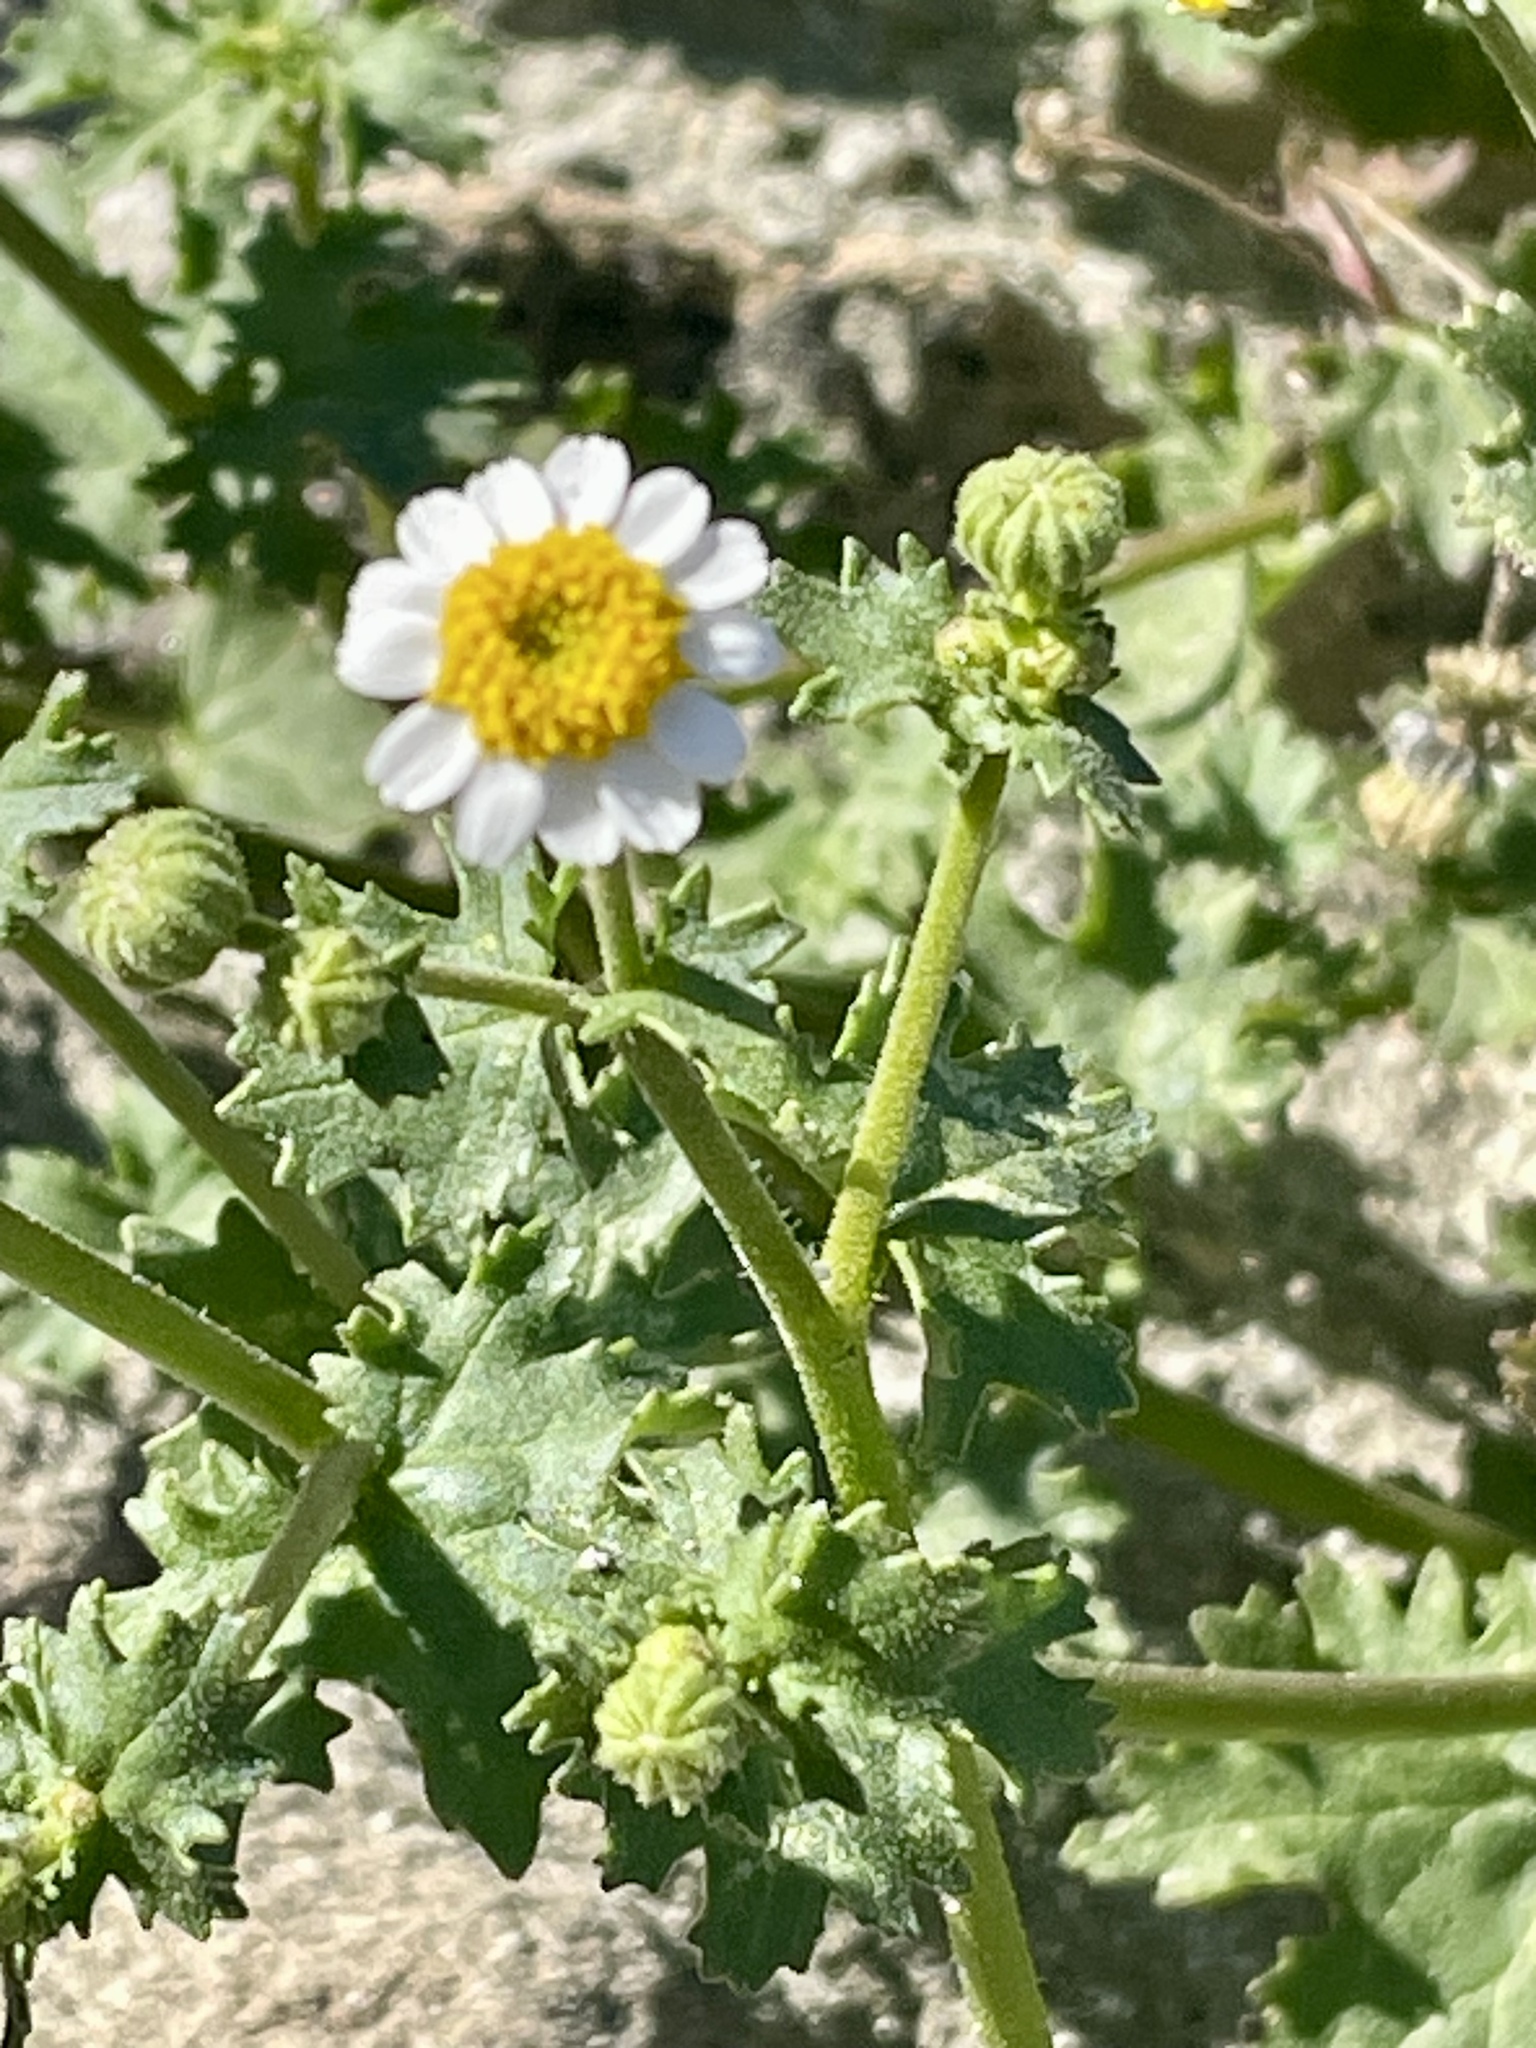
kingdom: Plantae
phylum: Tracheophyta
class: Magnoliopsida
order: Asterales
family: Asteraceae
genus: Laphamia
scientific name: Laphamia emoryi
